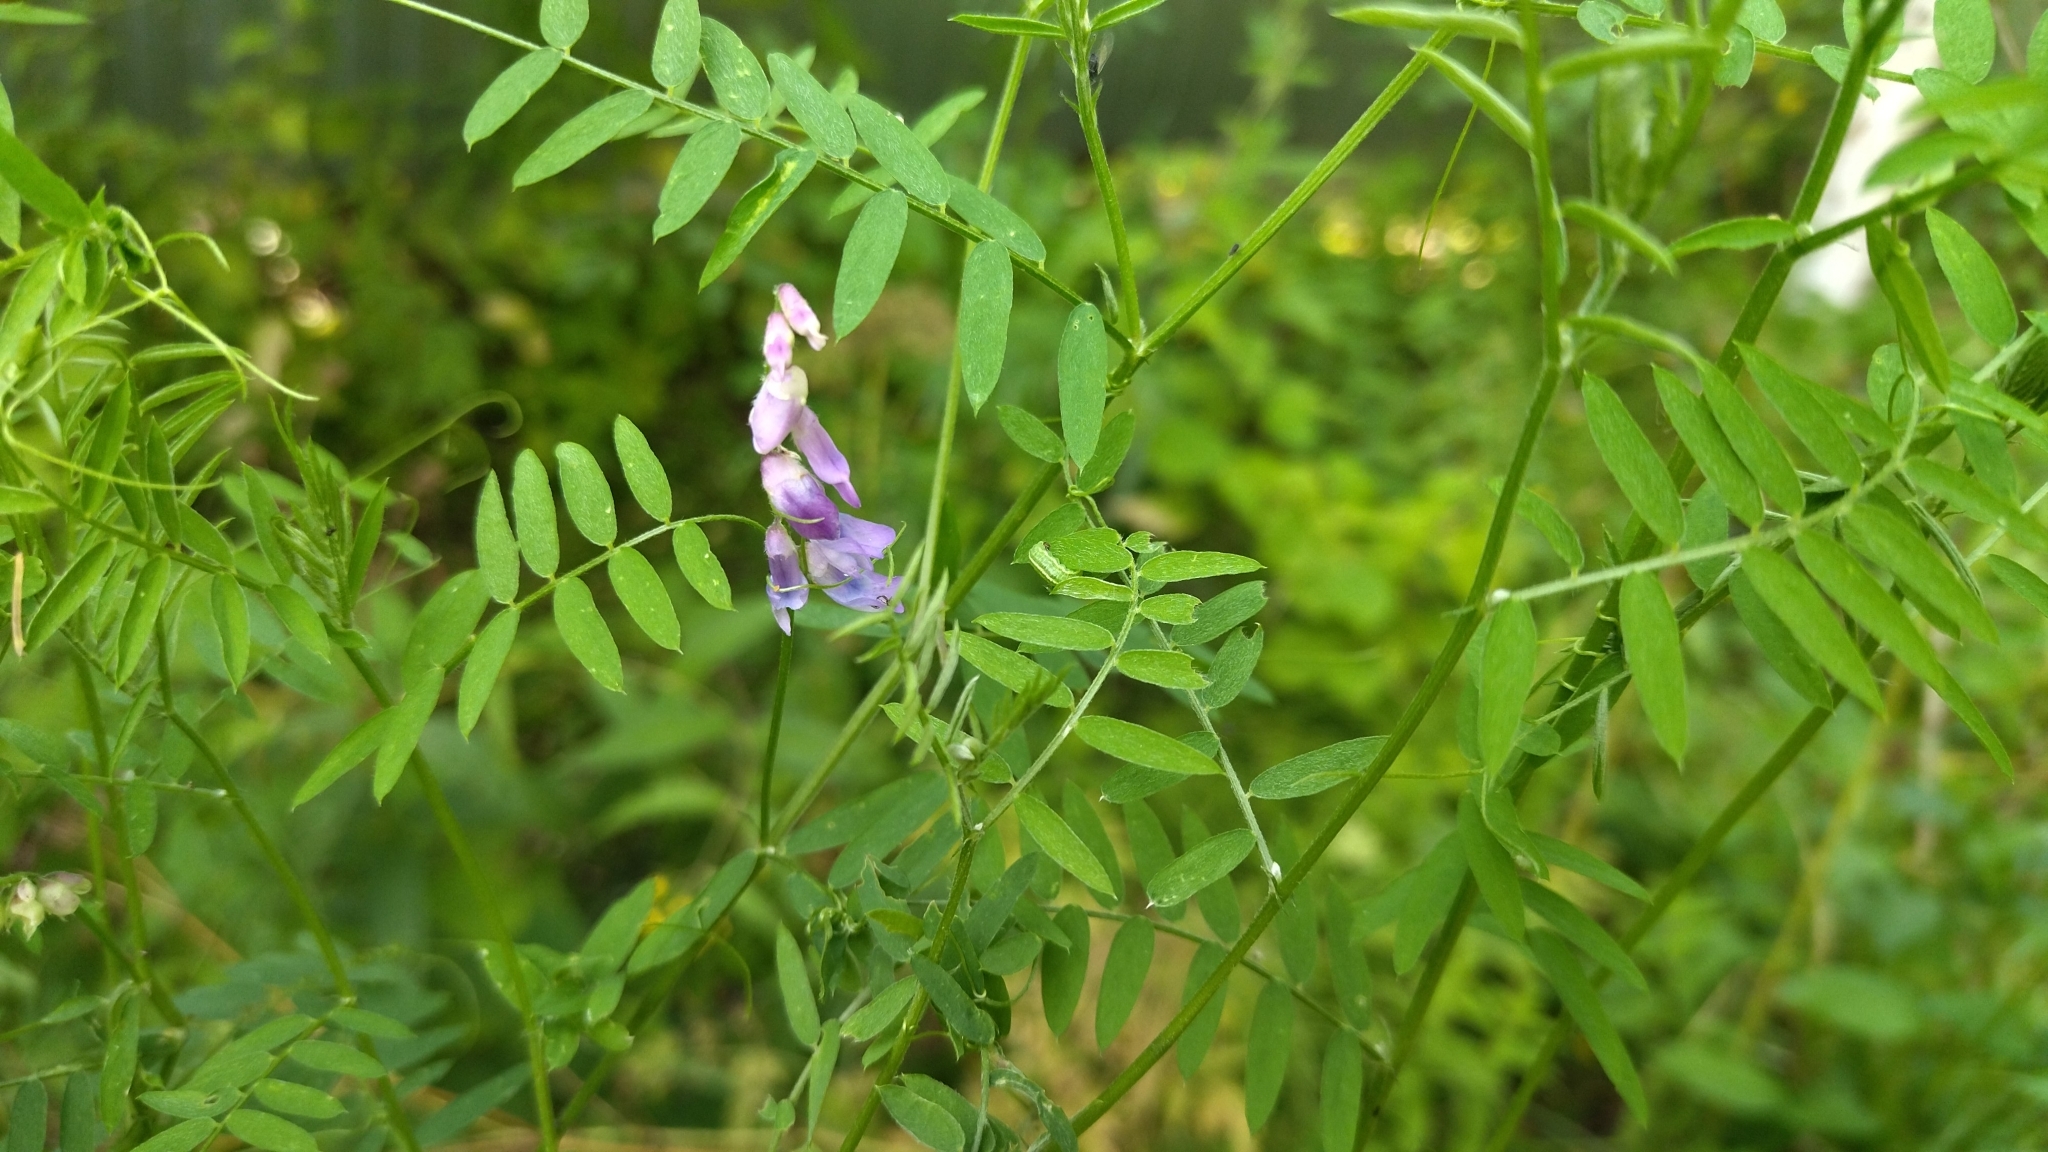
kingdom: Plantae
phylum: Tracheophyta
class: Magnoliopsida
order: Fabales
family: Fabaceae
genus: Vicia
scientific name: Vicia cracca
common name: Bird vetch
